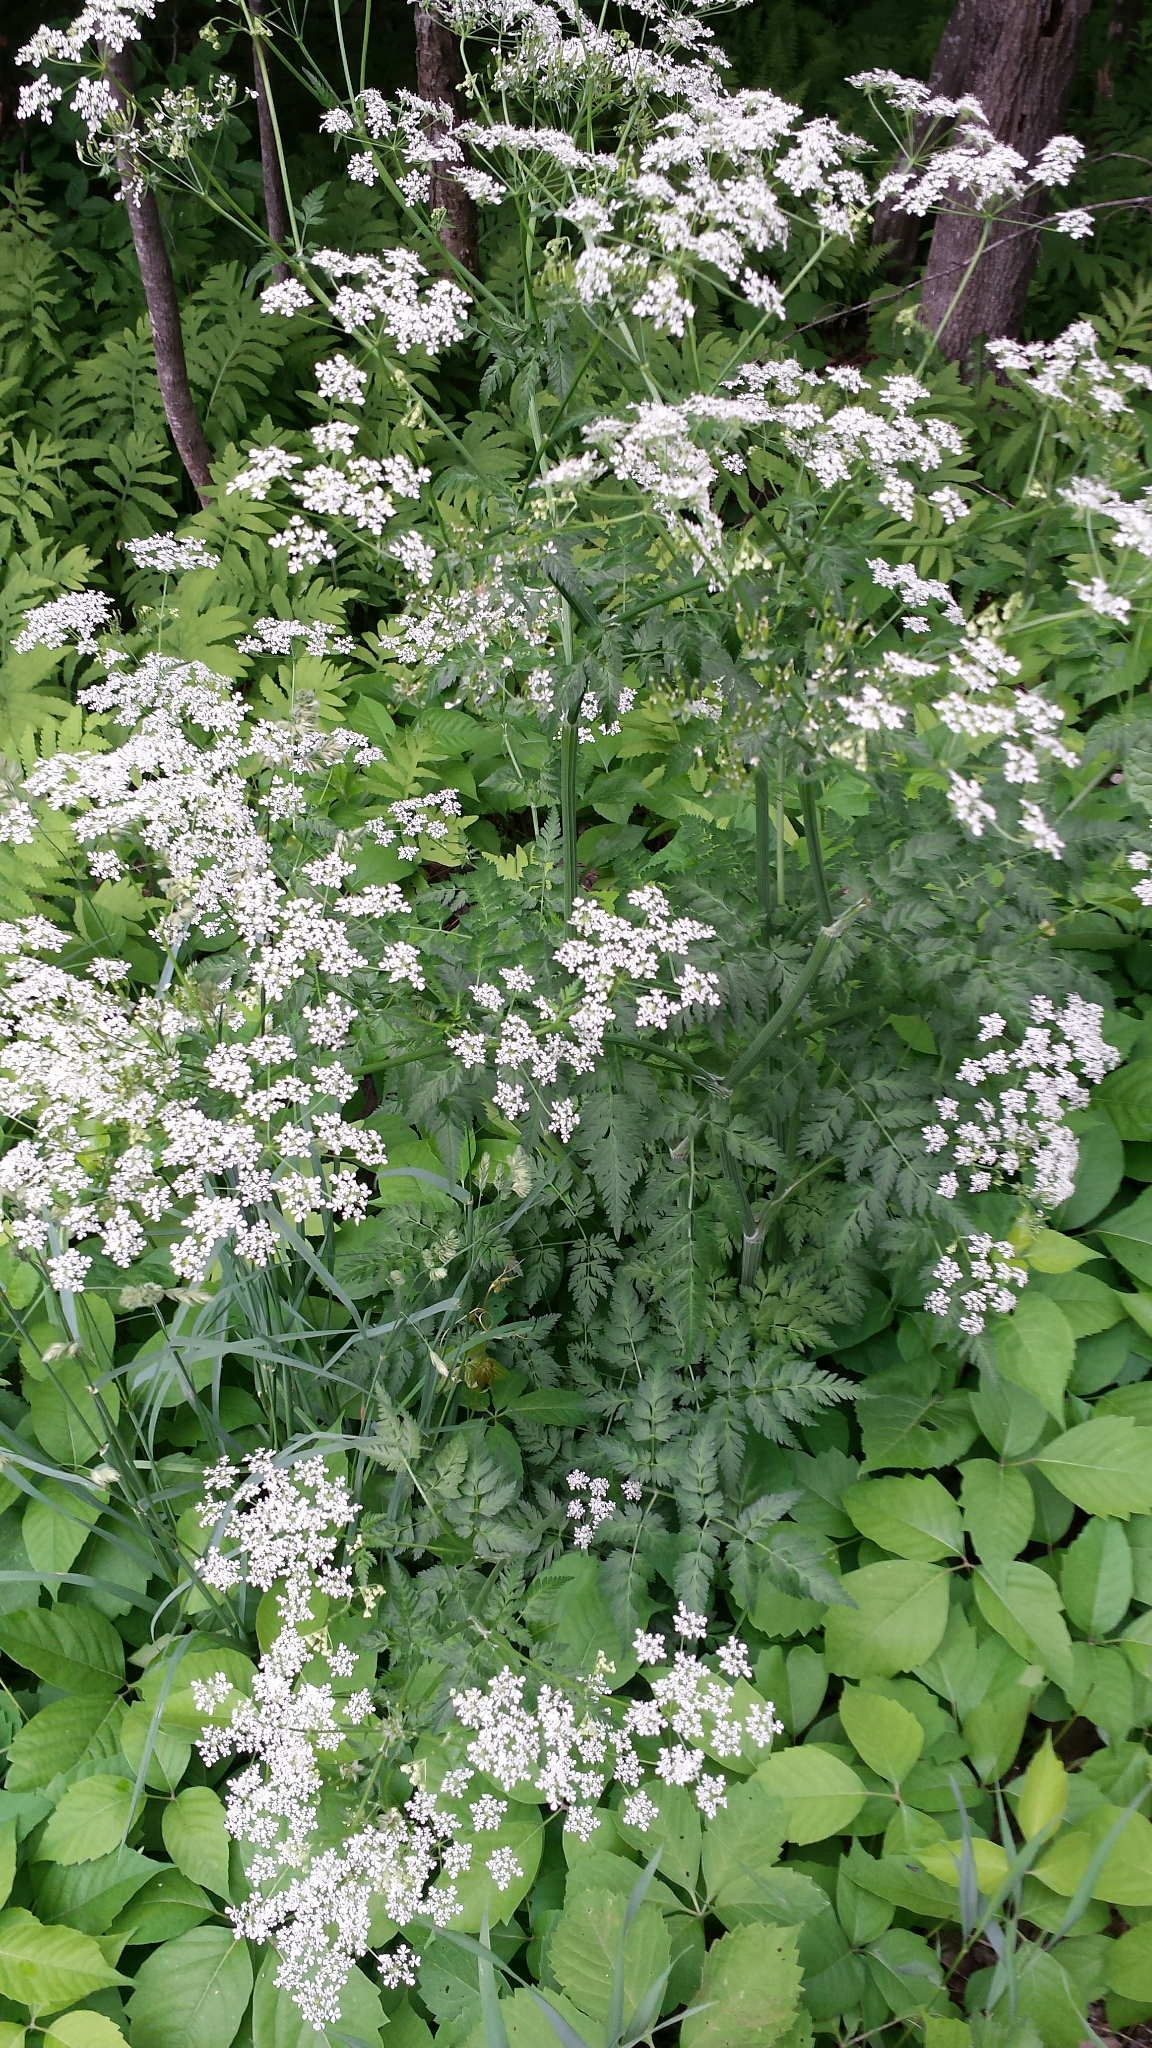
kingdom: Plantae
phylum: Tracheophyta
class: Magnoliopsida
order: Apiales
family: Apiaceae
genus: Anthriscus
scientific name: Anthriscus sylvestris
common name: Cow parsley
